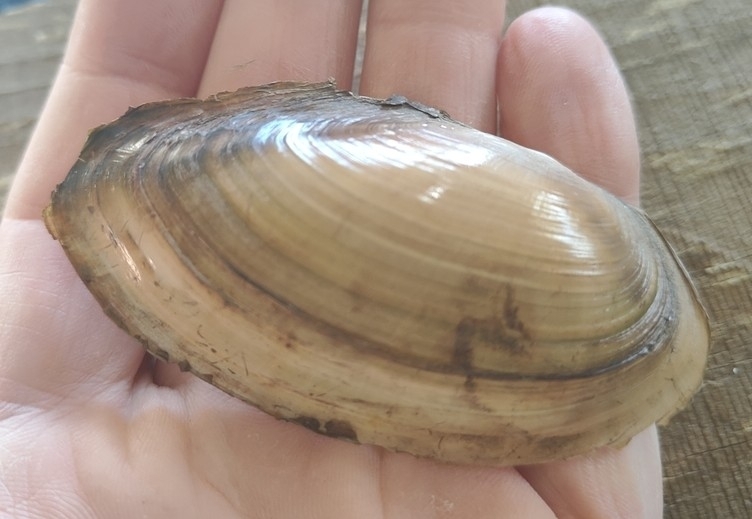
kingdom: Animalia
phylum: Mollusca
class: Bivalvia
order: Unionida
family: Unionidae
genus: Utterbackia
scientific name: Utterbackia imbecillis
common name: Paper pondshell
